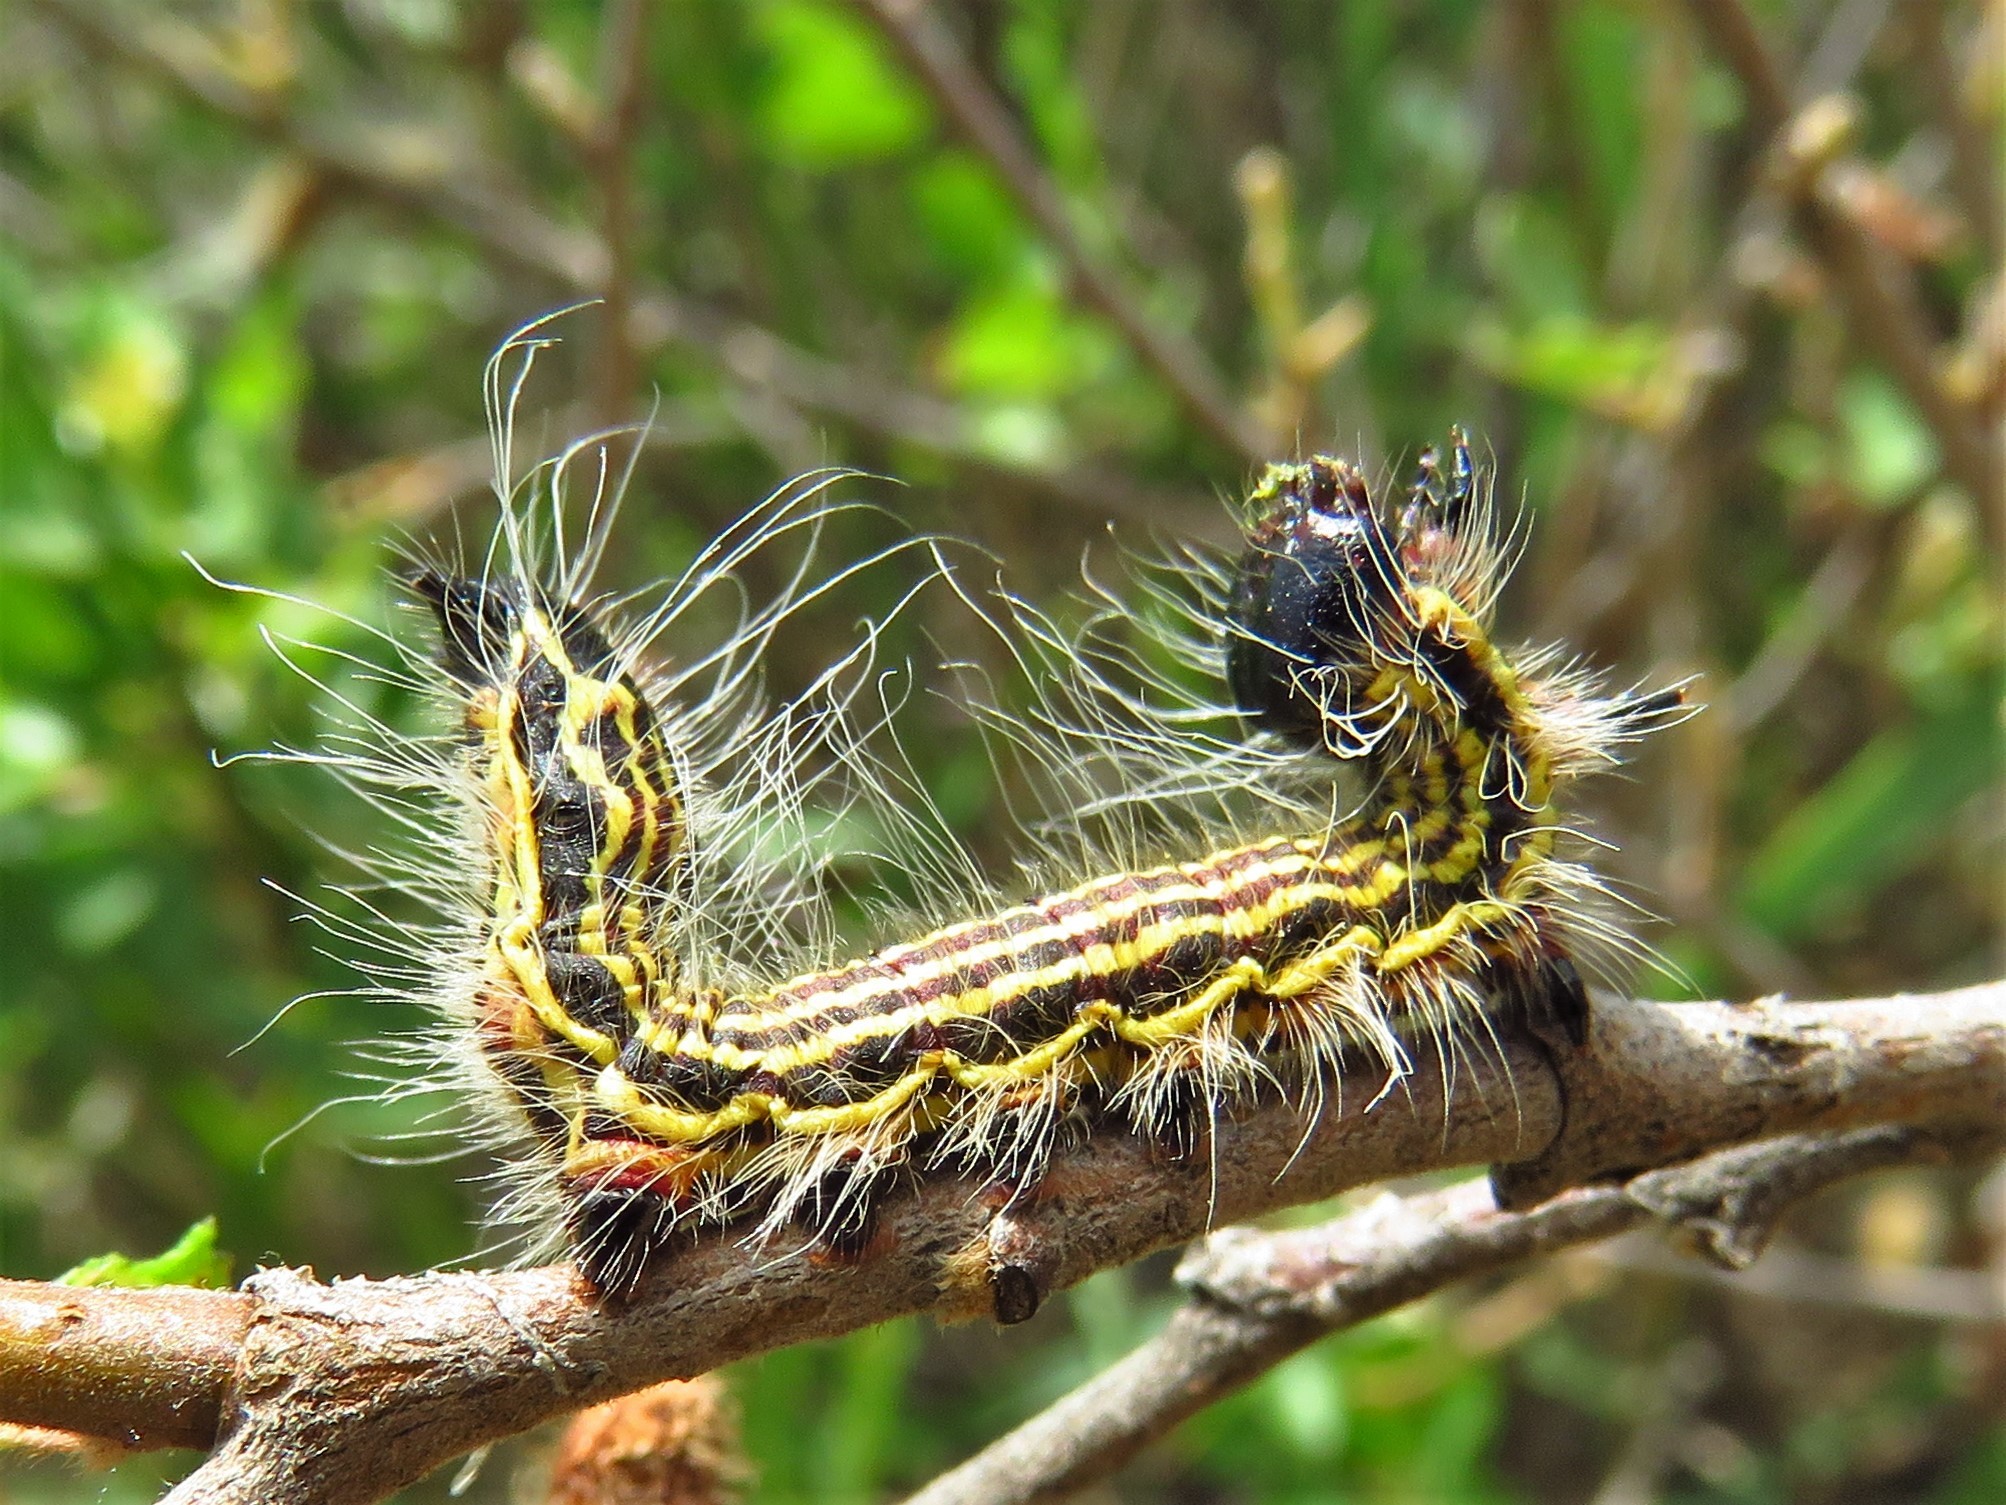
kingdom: Animalia
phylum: Arthropoda
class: Insecta
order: Lepidoptera
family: Notodontidae
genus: Datana
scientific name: Datana perspicua
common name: Spotted datana
